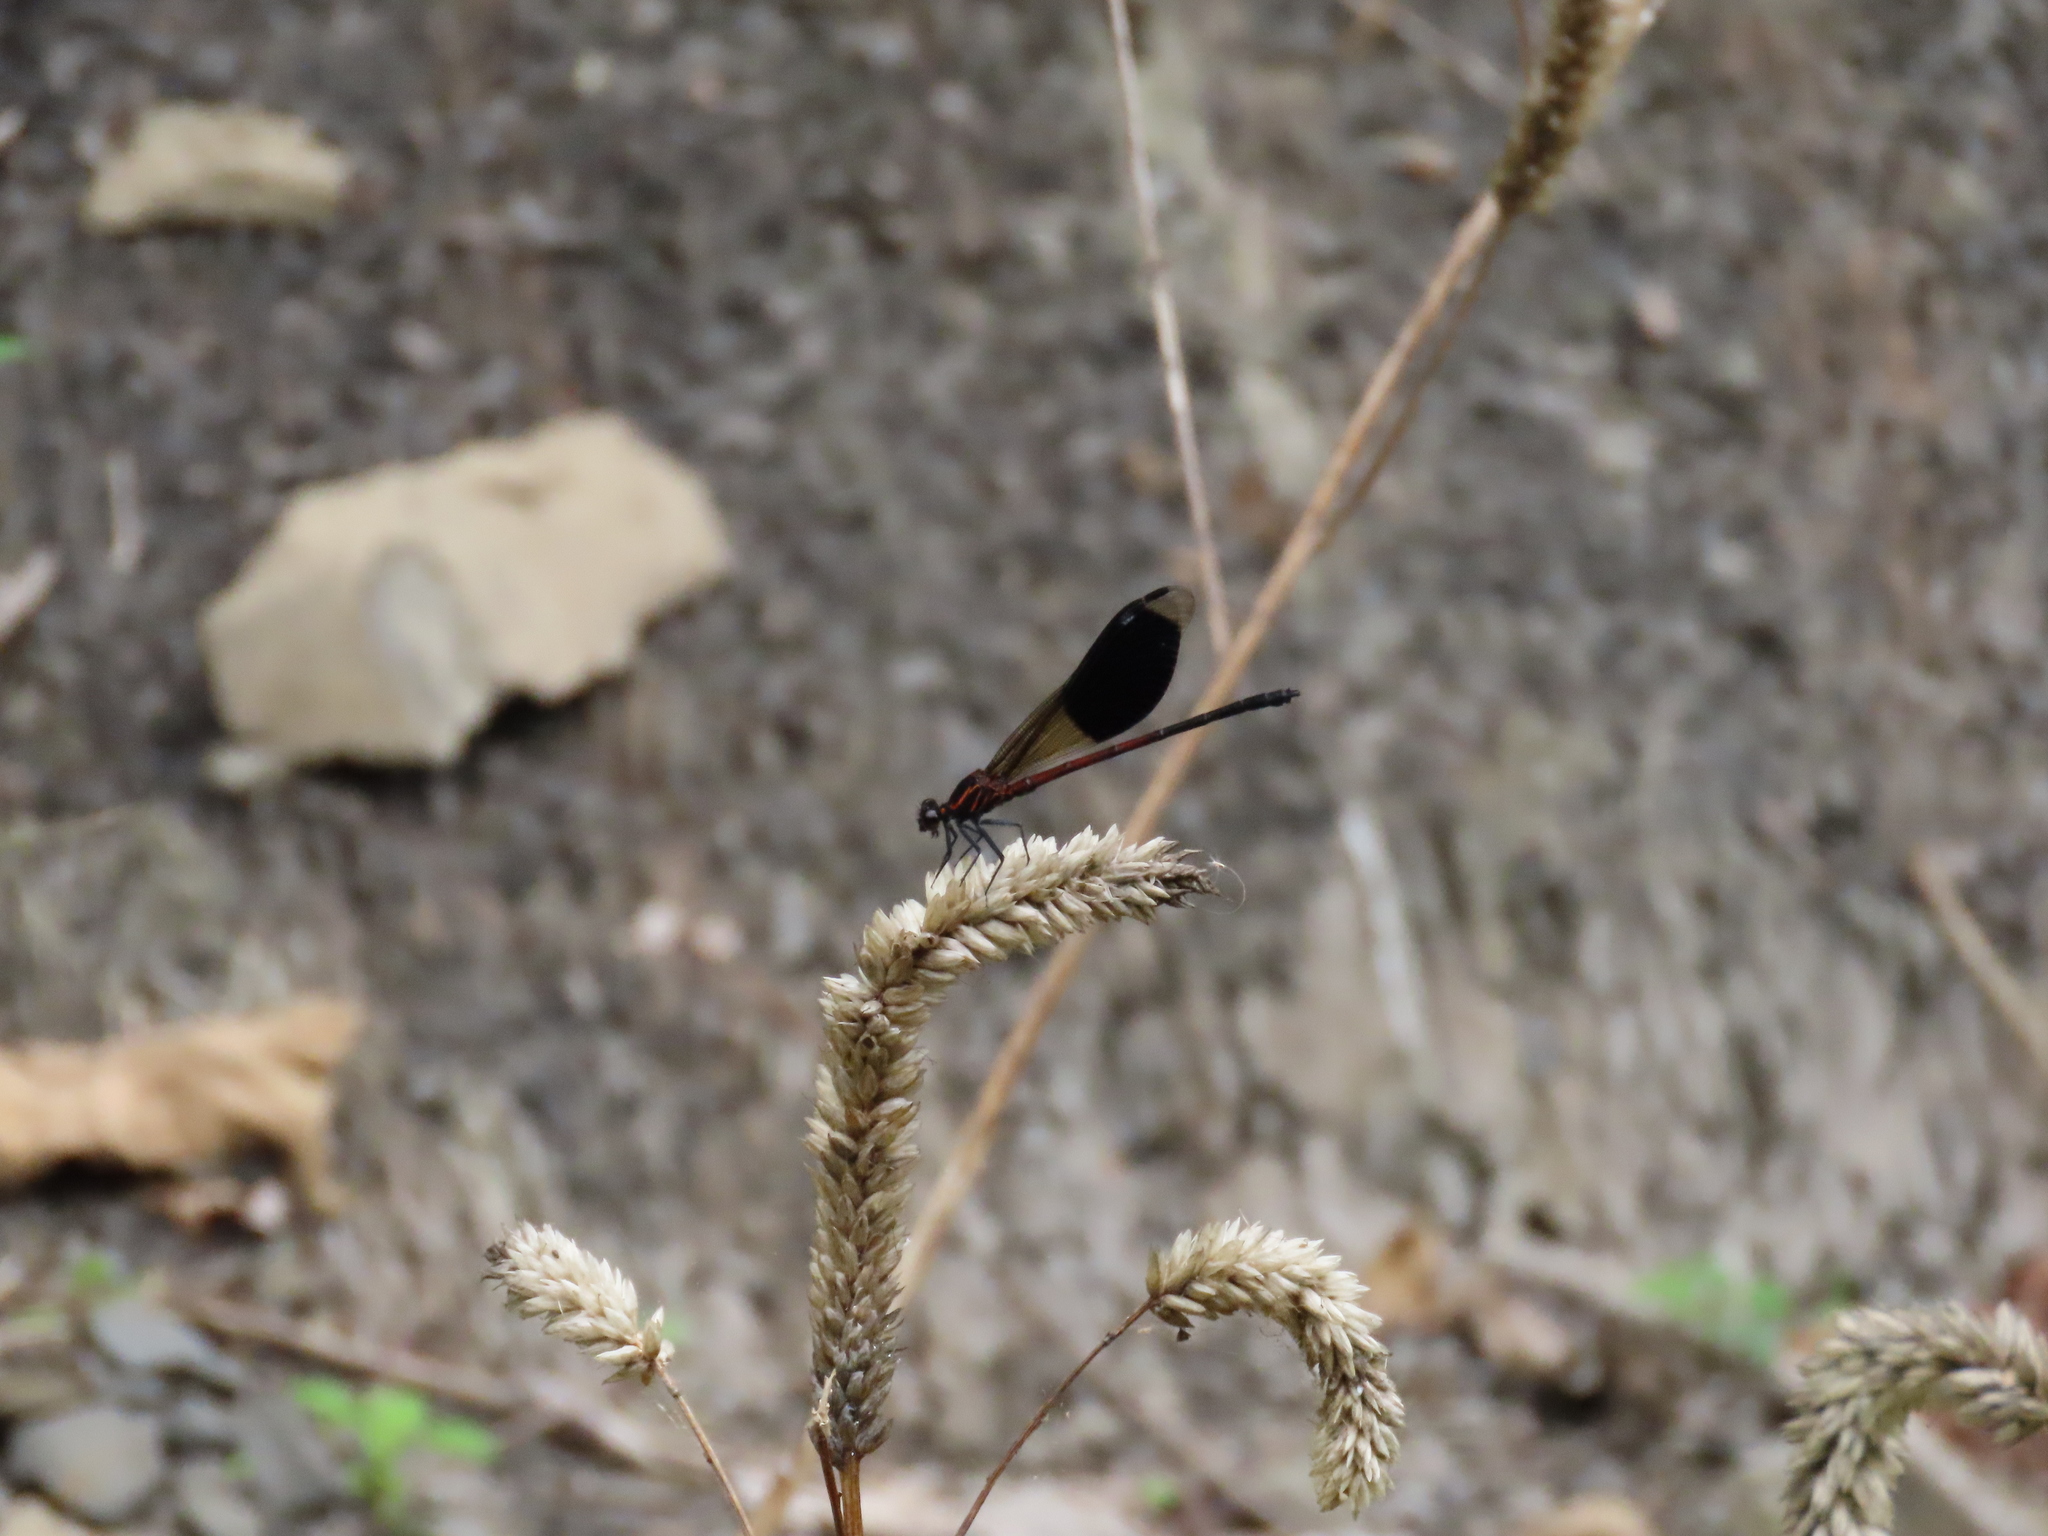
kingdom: Animalia
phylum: Arthropoda
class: Insecta
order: Odonata
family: Euphaeidae
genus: Euphaea
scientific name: Euphaea formosa
